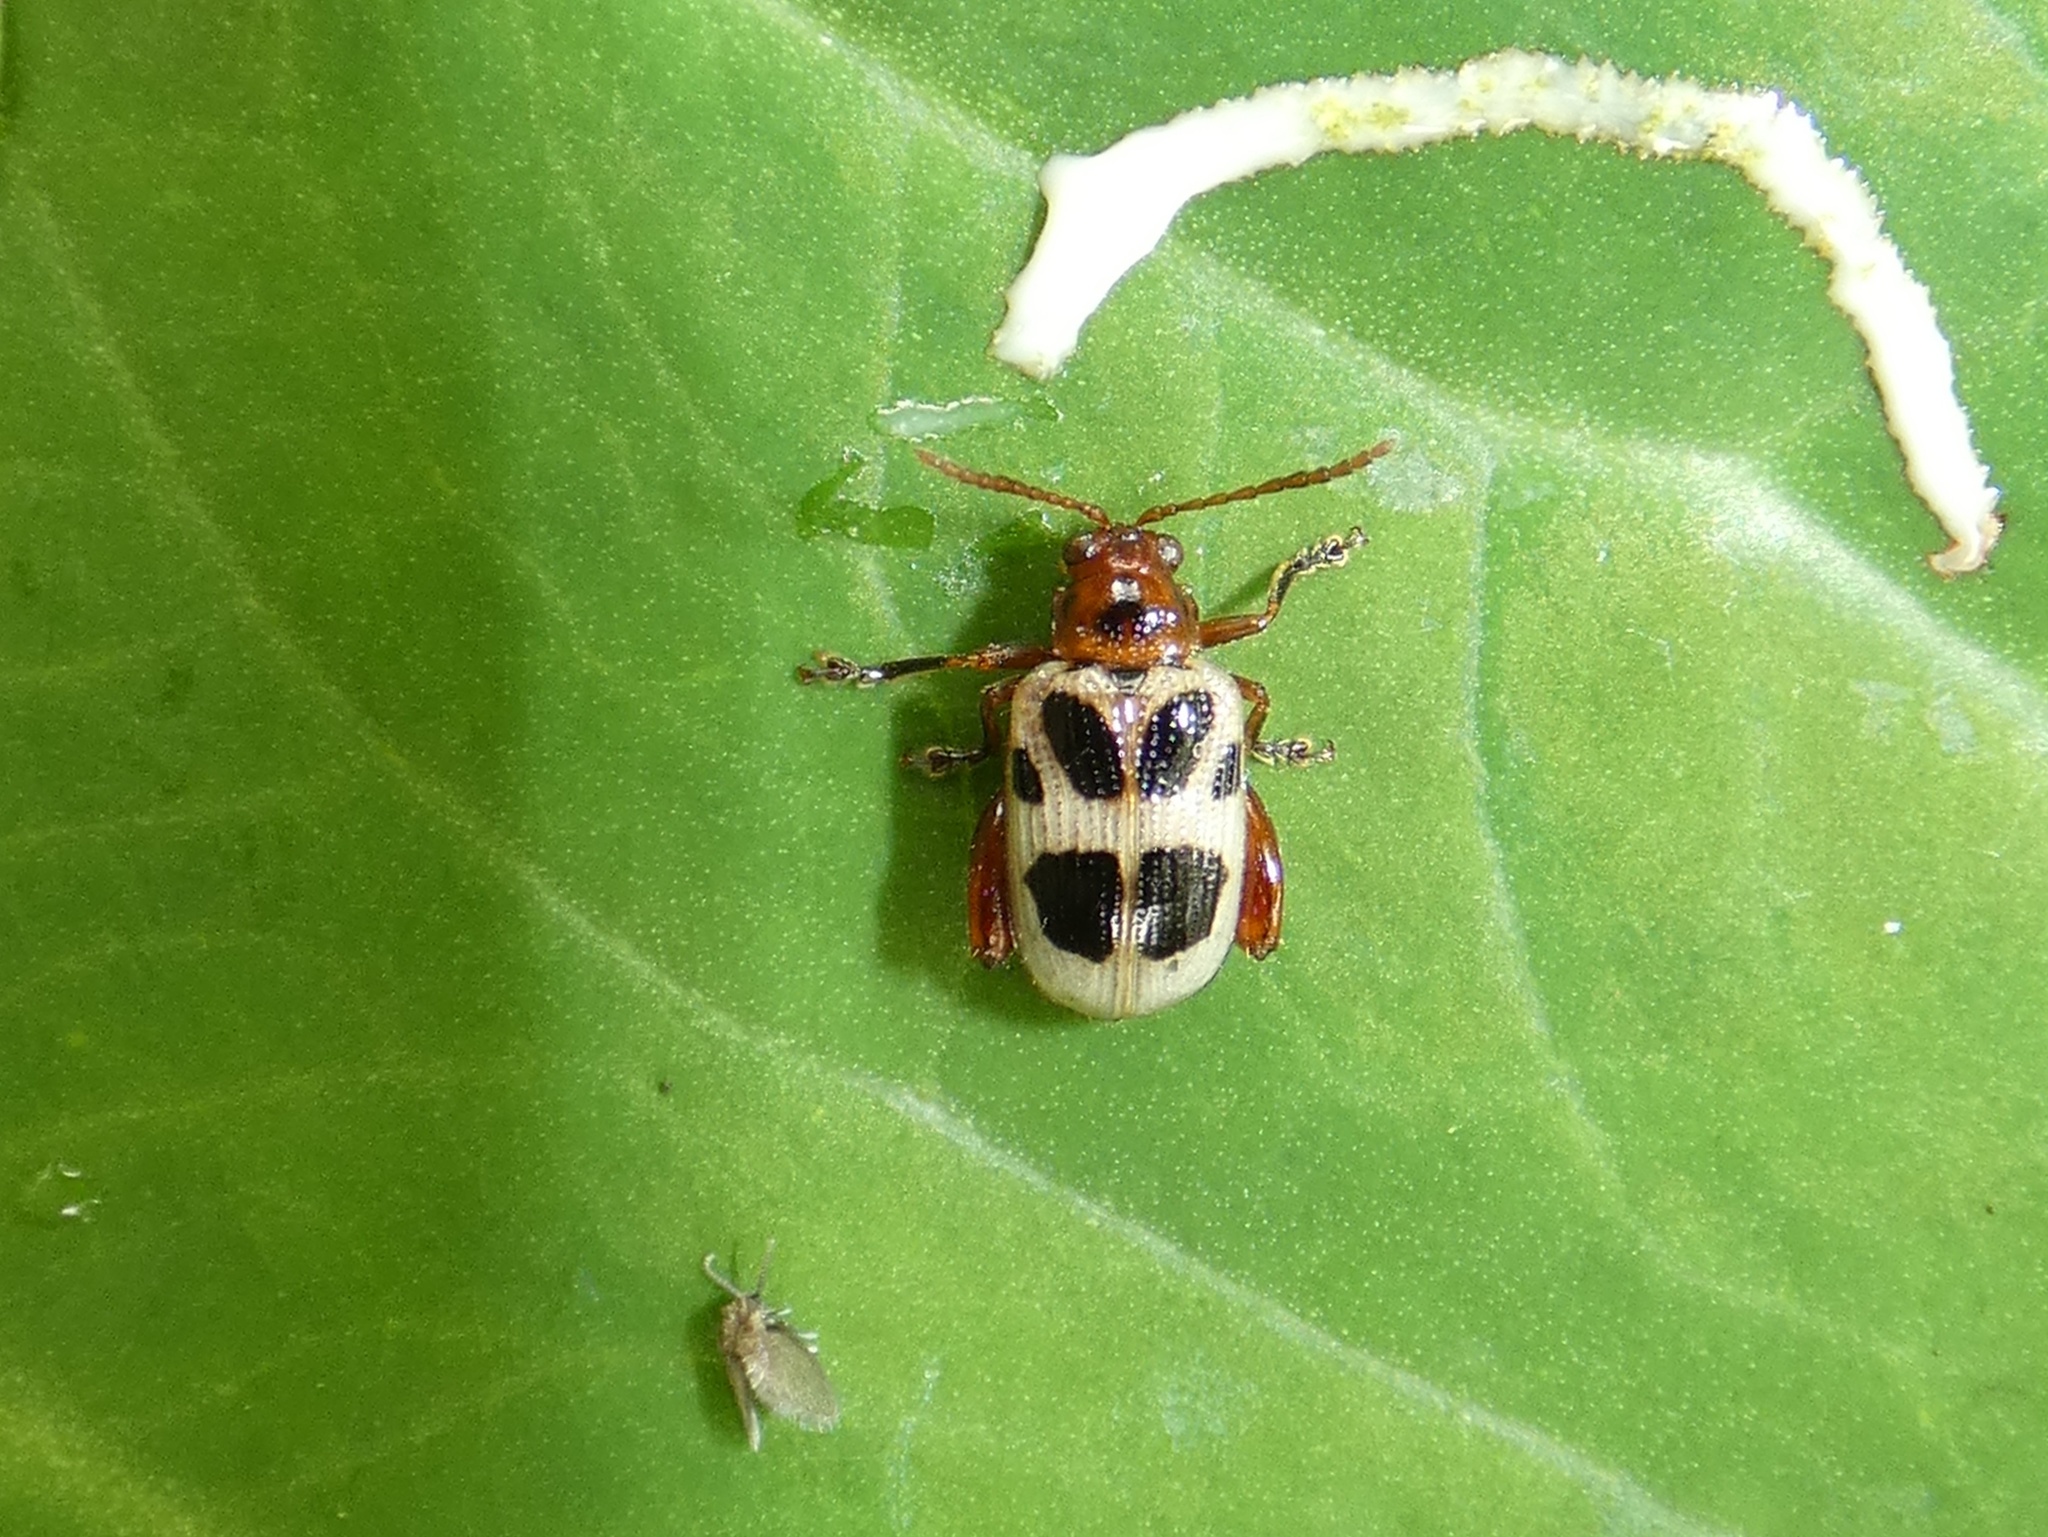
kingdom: Animalia
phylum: Arthropoda
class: Insecta
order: Coleoptera
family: Chrysomelidae
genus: Allochroma
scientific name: Allochroma
